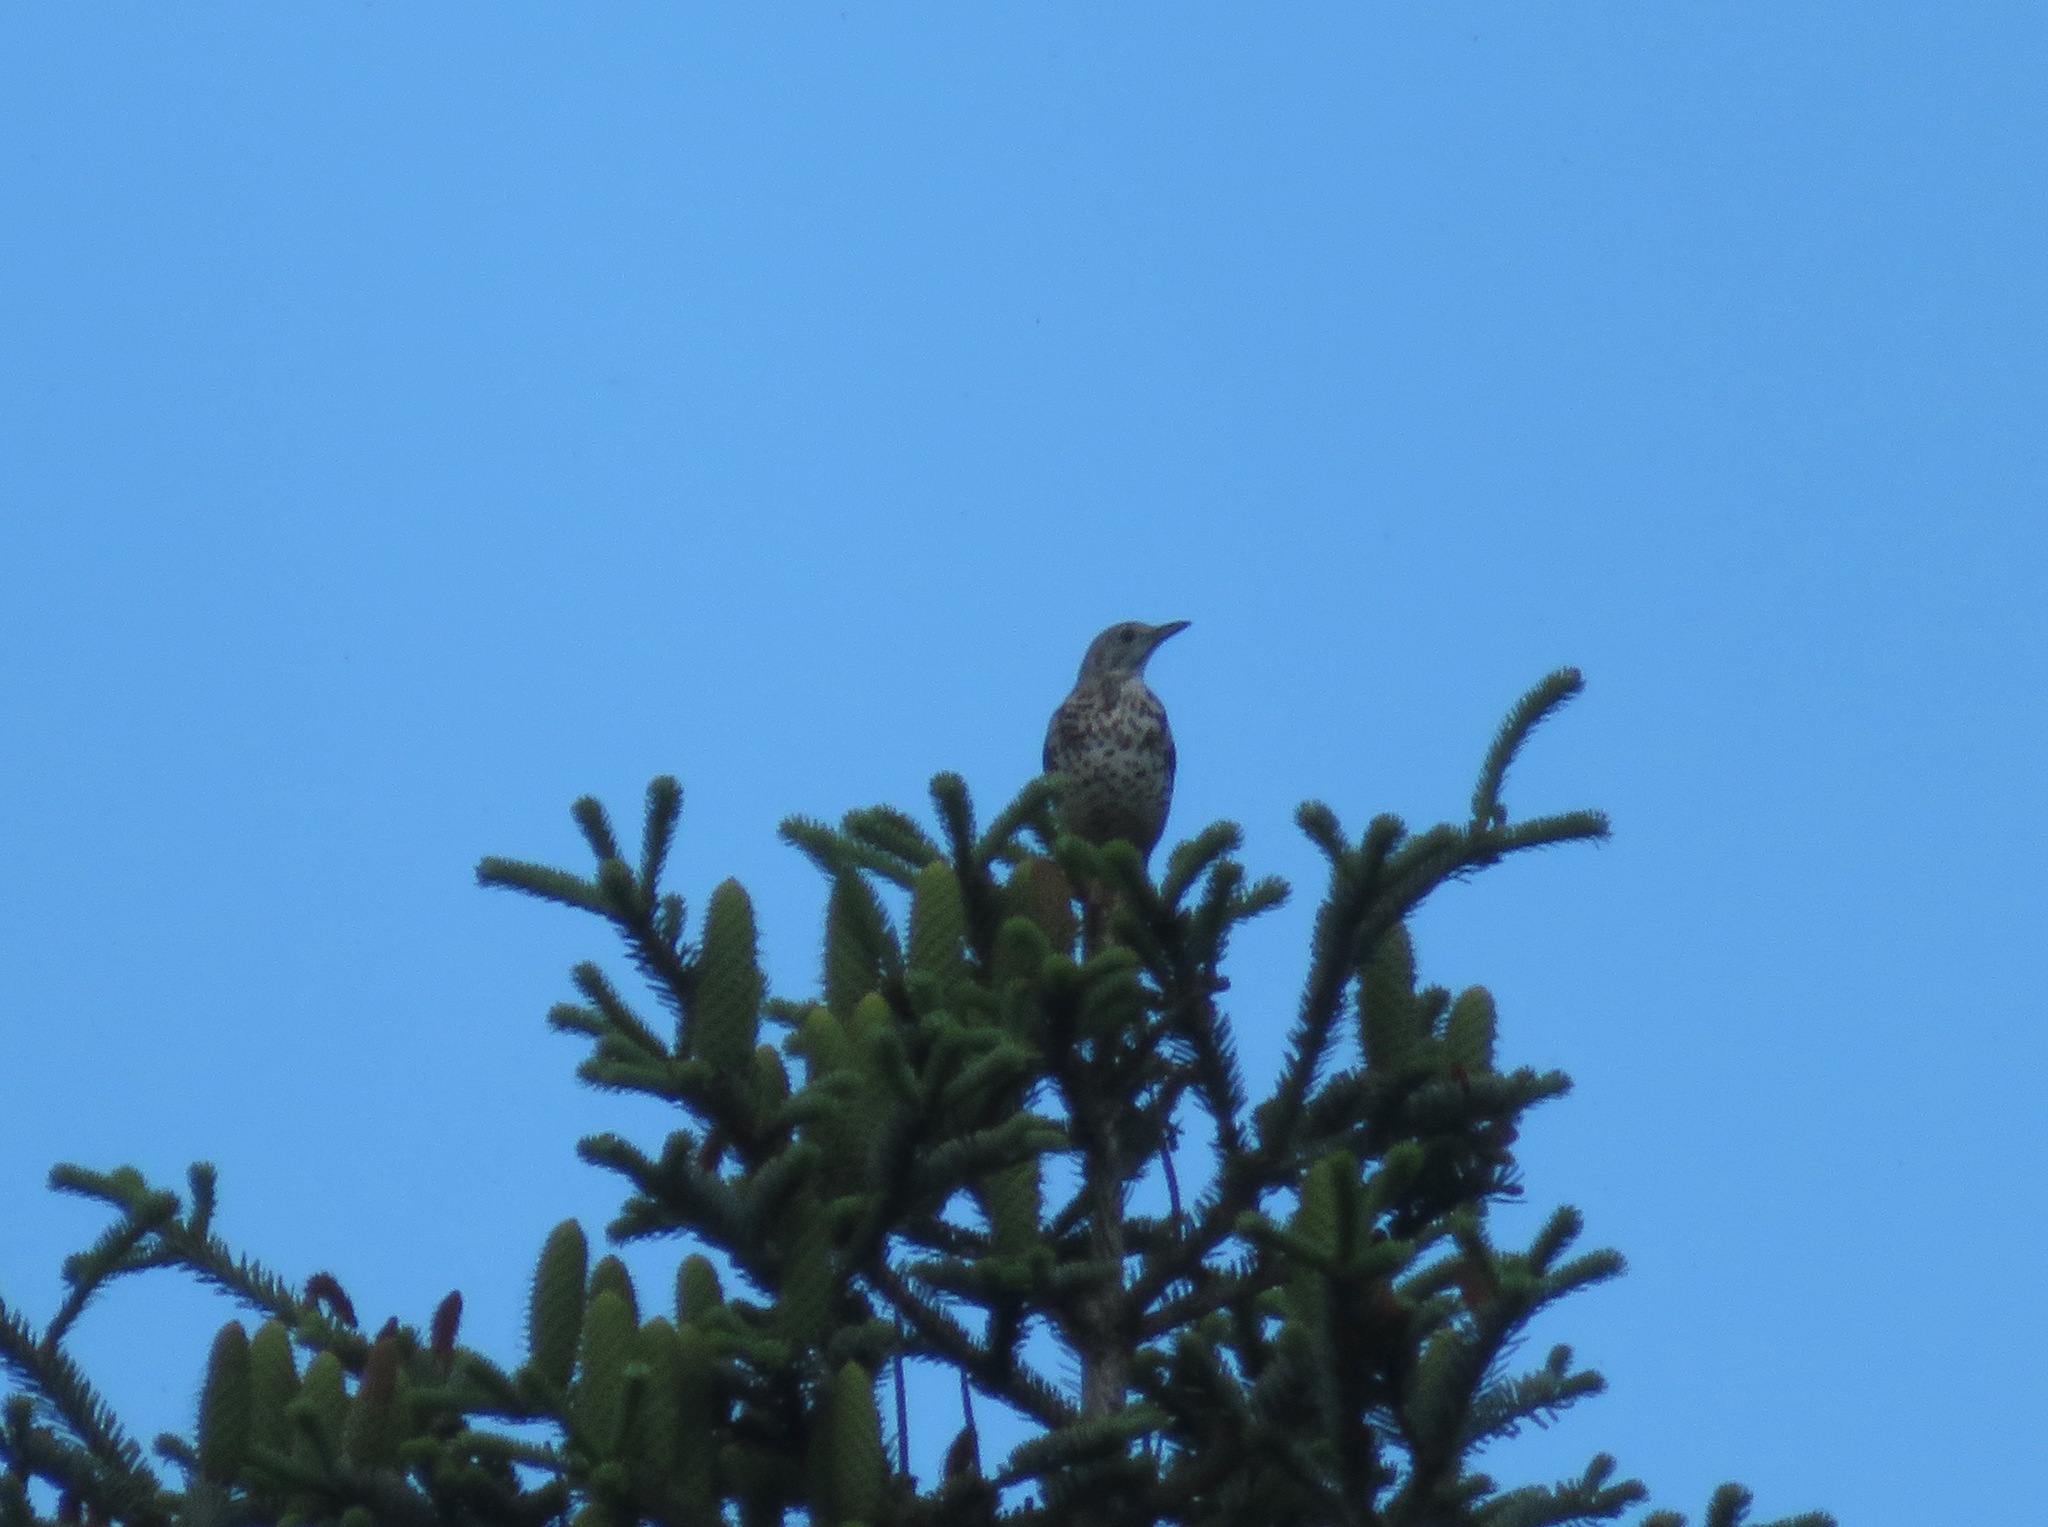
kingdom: Animalia
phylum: Chordata
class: Aves
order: Passeriformes
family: Turdidae
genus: Turdus
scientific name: Turdus viscivorus
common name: Mistle thrush
